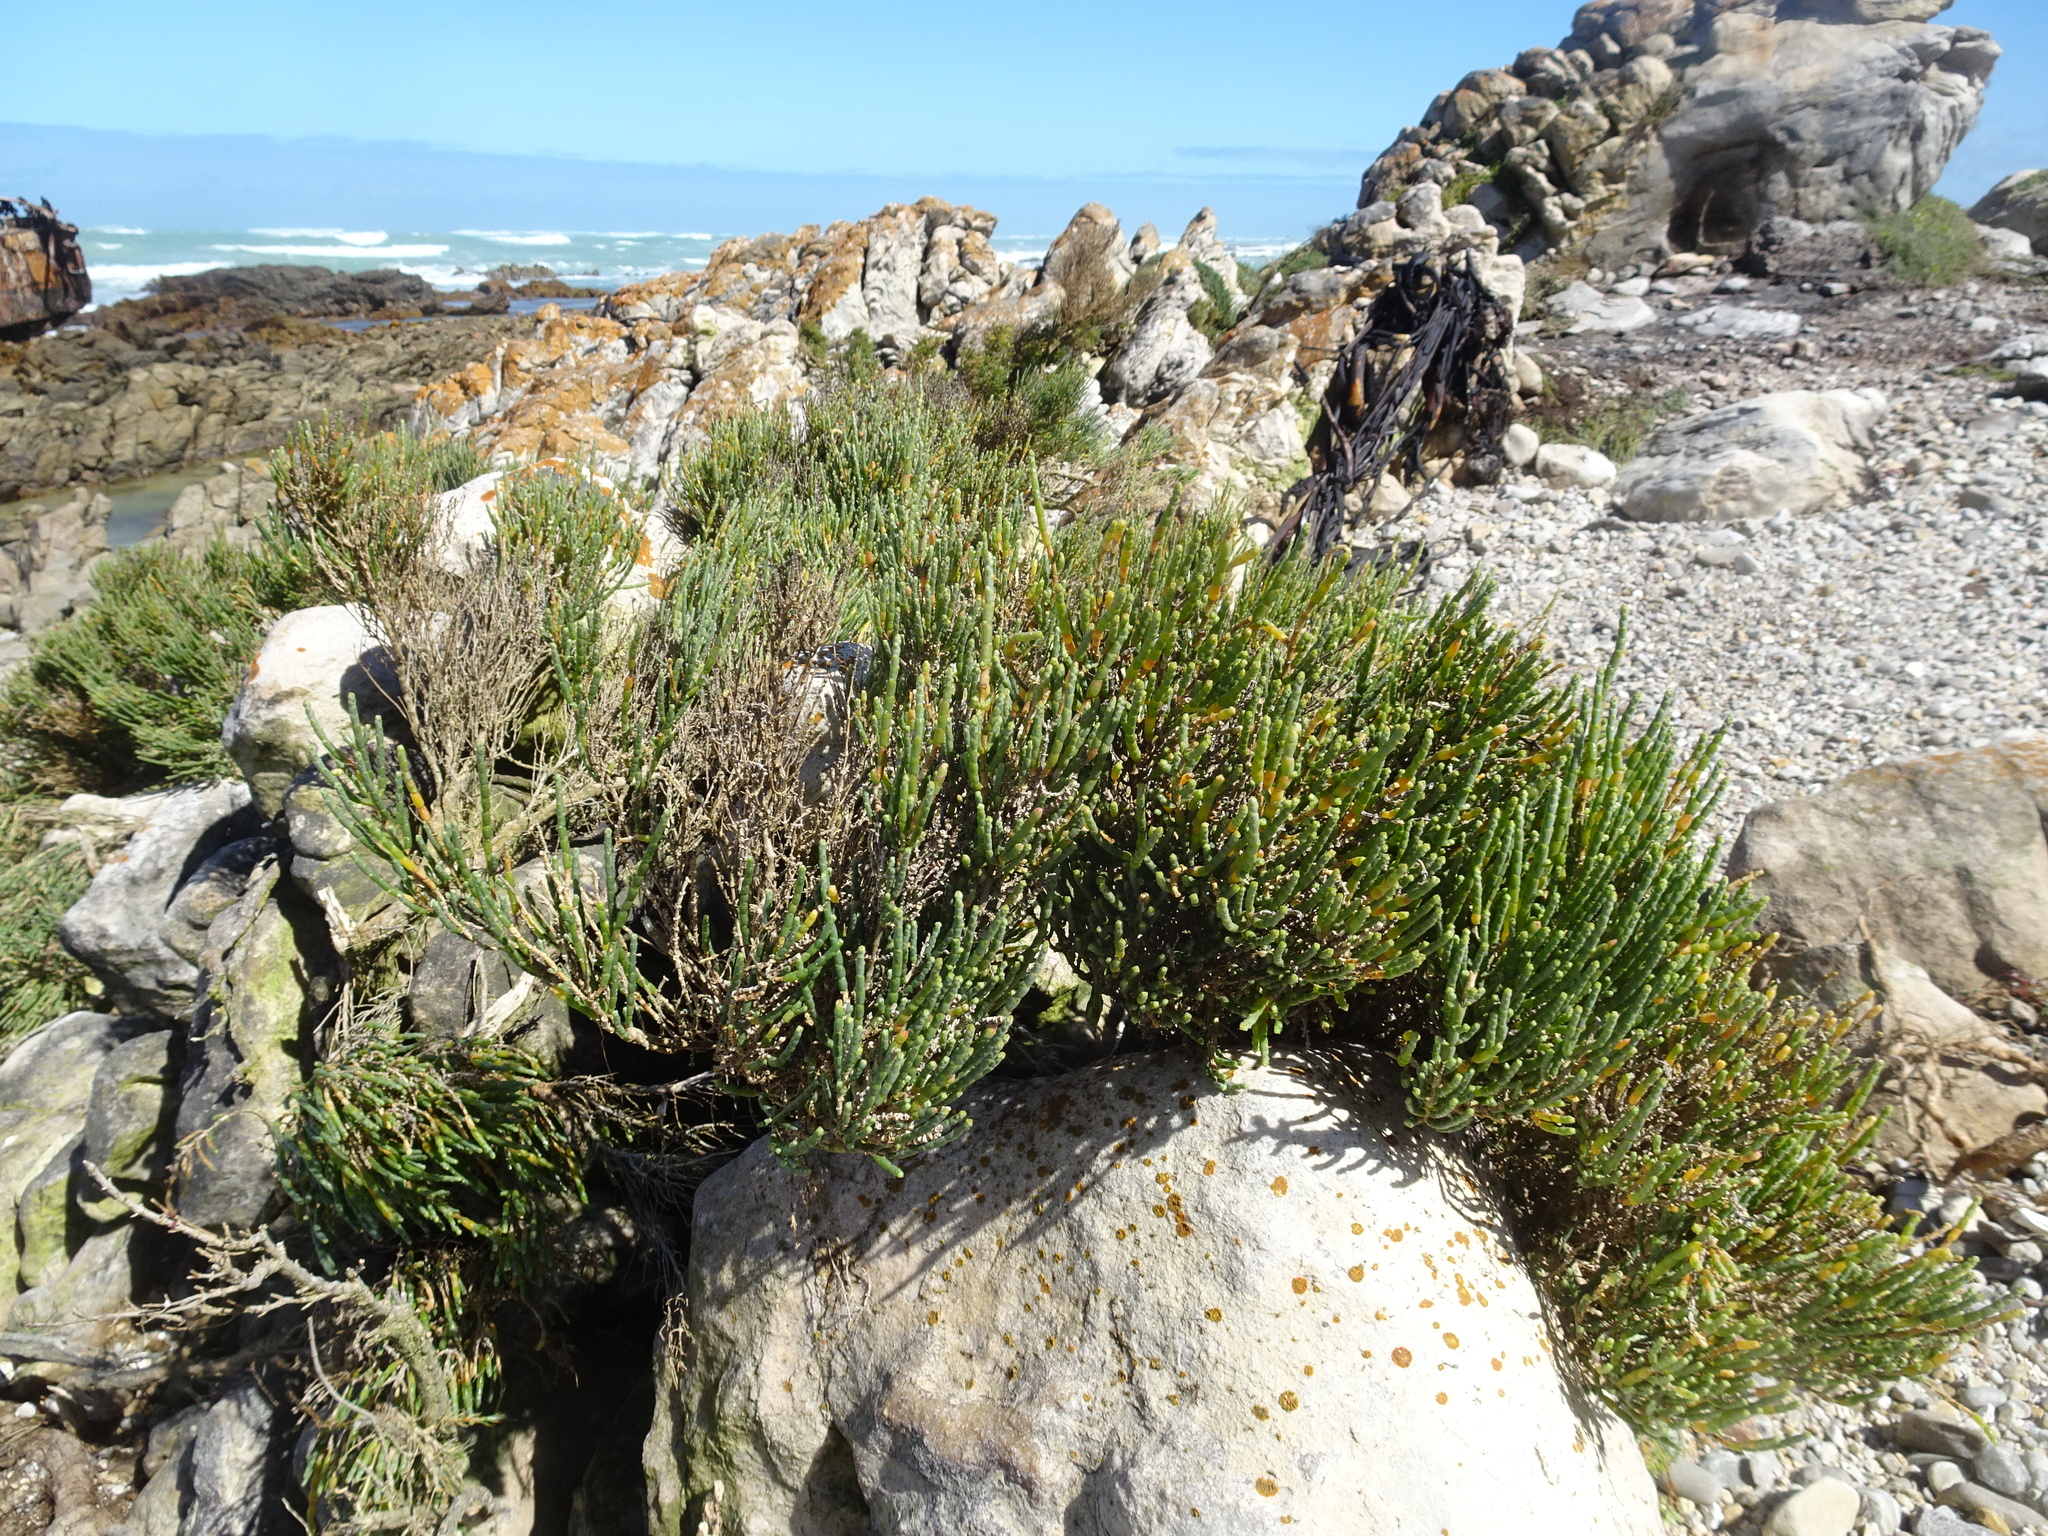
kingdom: Plantae
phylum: Tracheophyta
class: Magnoliopsida
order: Caryophyllales
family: Amaranthaceae
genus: Salicornia
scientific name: Salicornia littorea
